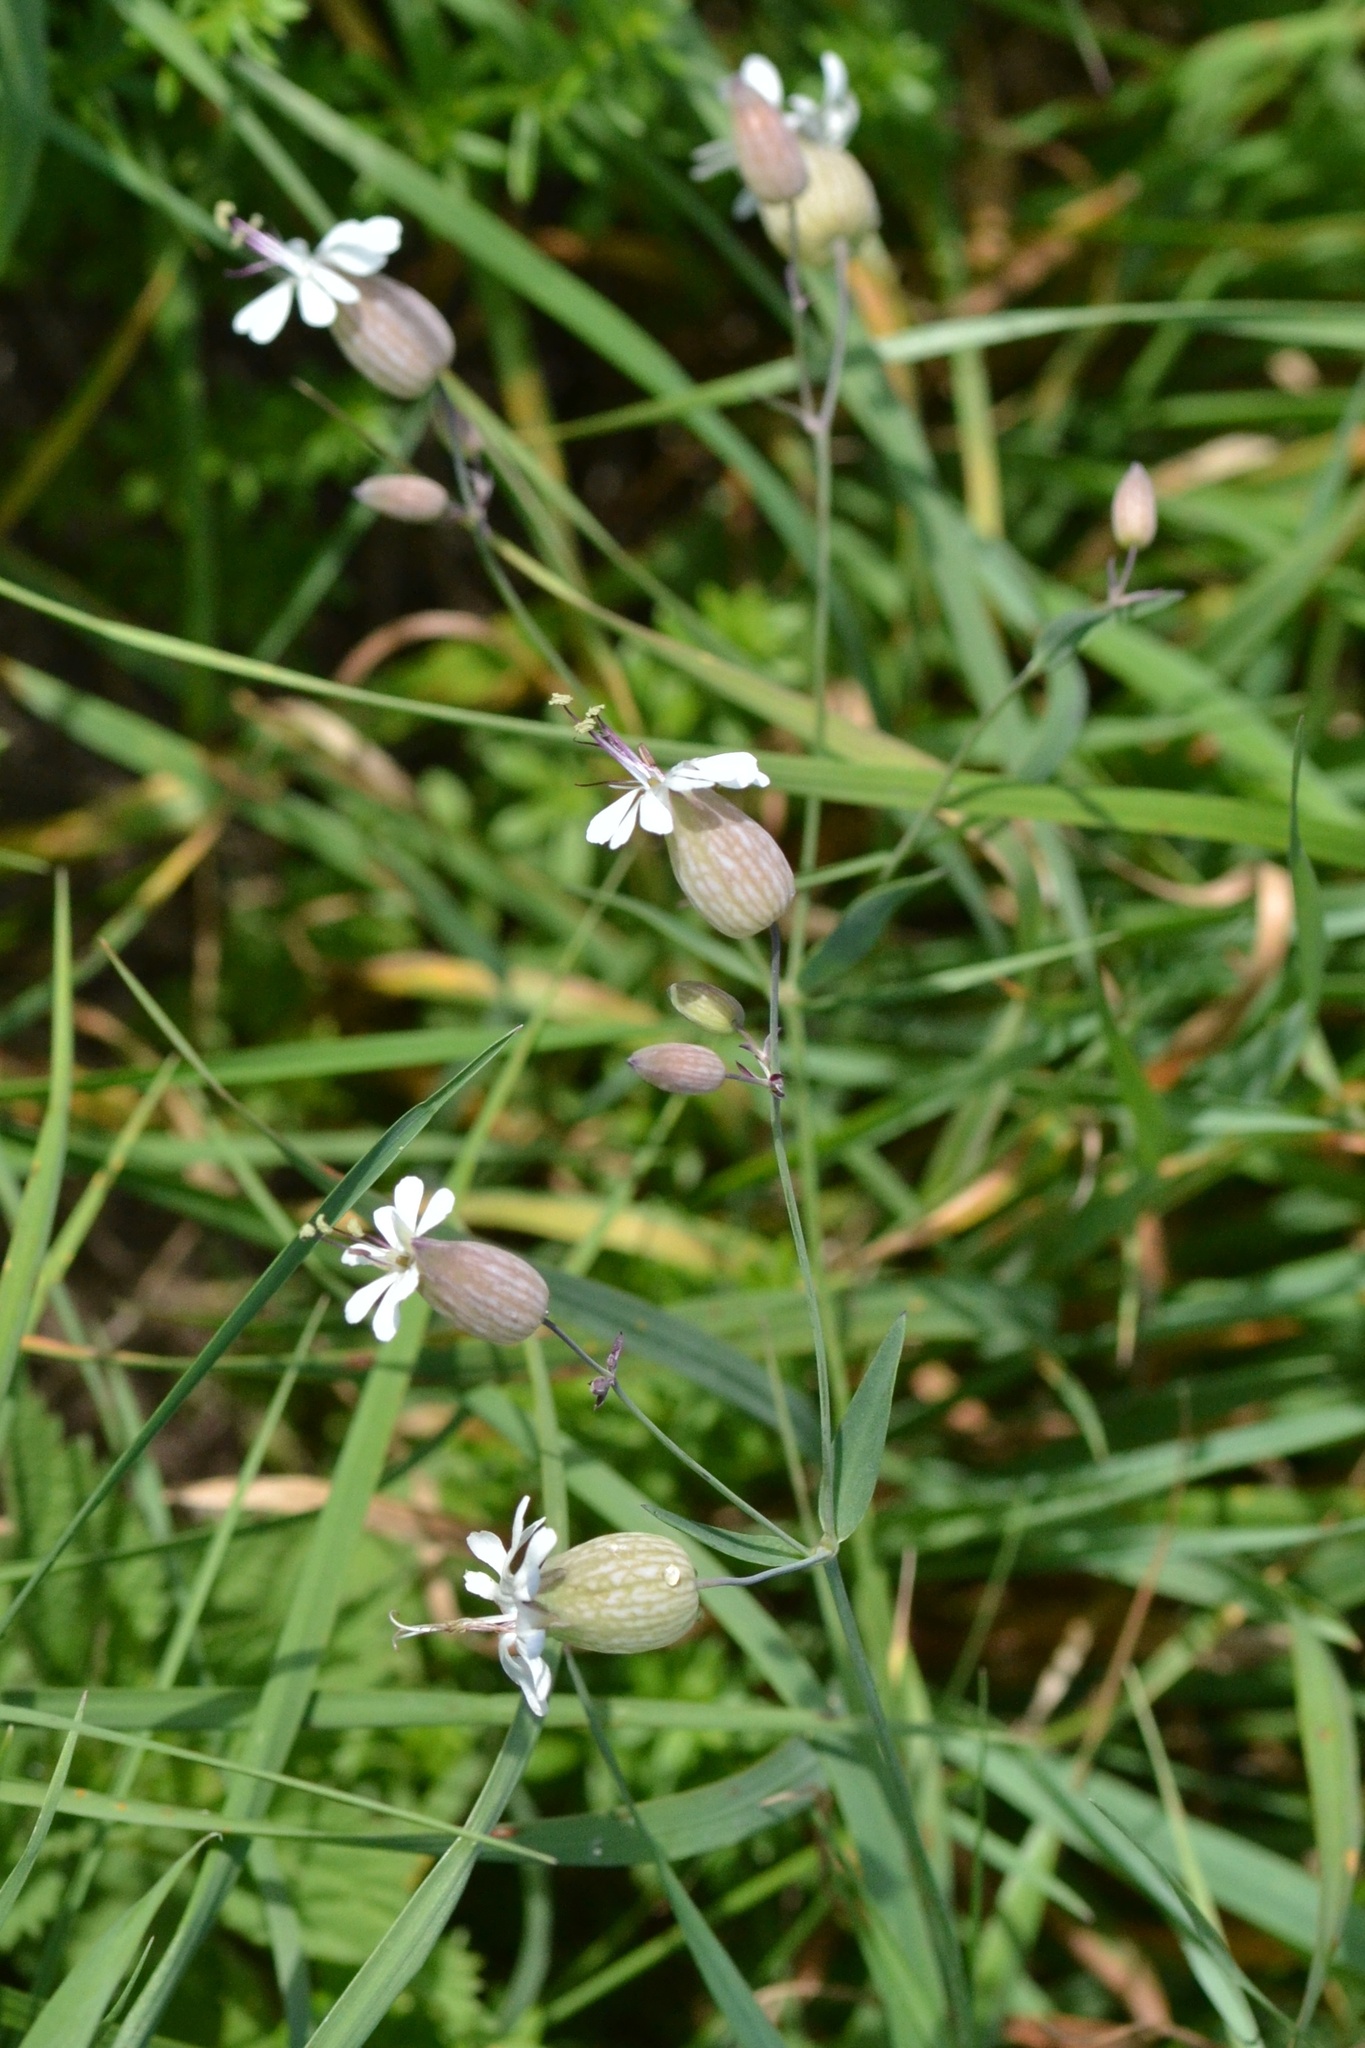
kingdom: Plantae
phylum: Tracheophyta
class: Magnoliopsida
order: Caryophyllales
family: Caryophyllaceae
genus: Silene
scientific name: Silene vulgaris
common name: Bladder campion
